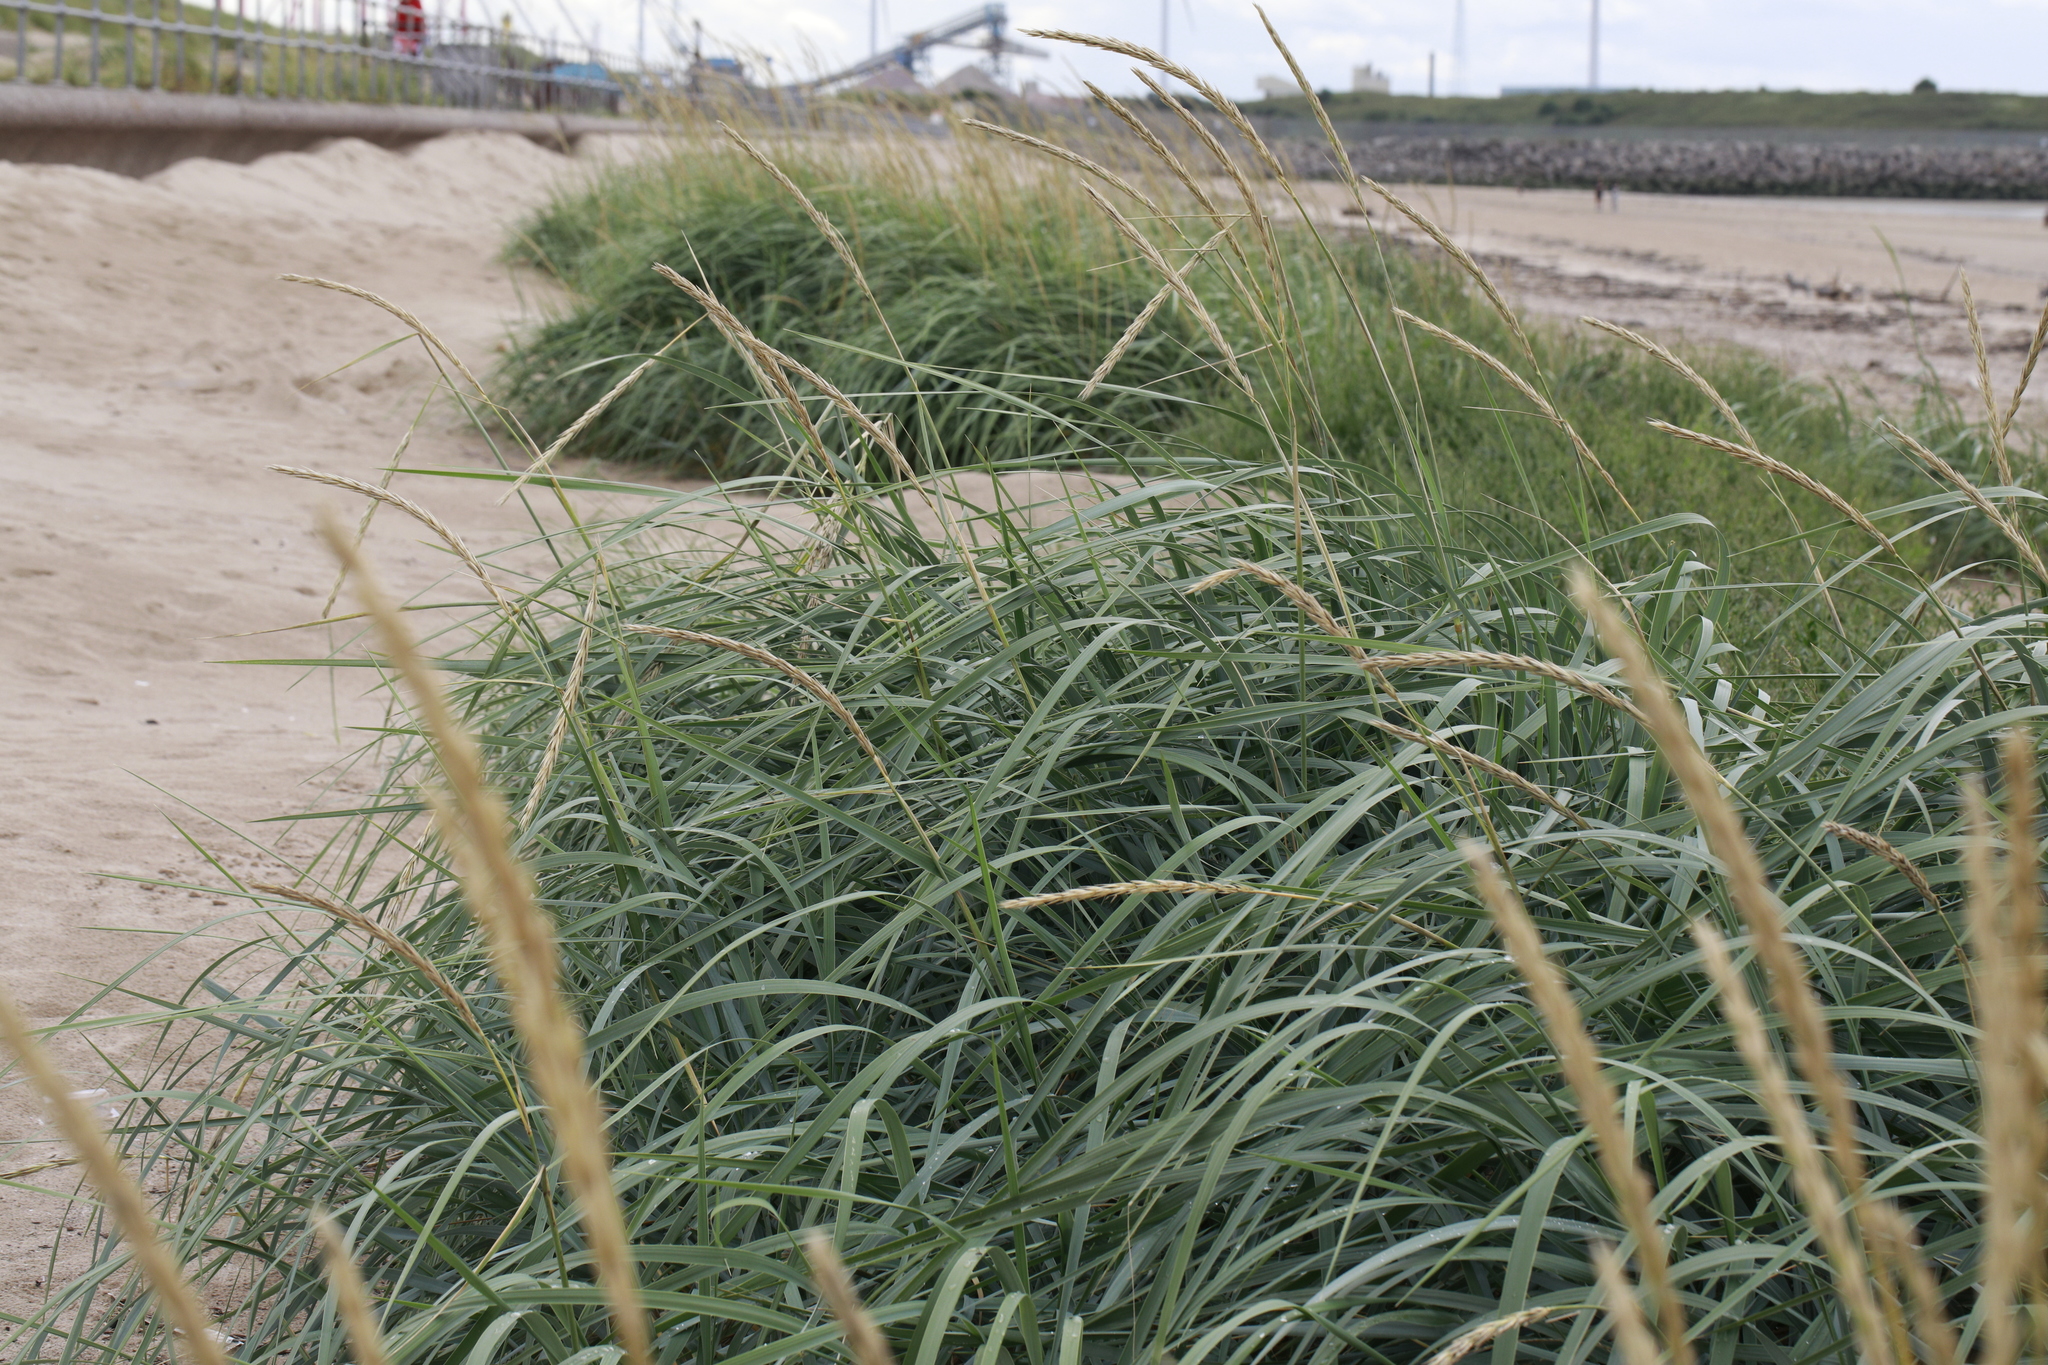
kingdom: Plantae
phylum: Tracheophyta
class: Liliopsida
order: Poales
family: Poaceae
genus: Leymus
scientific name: Leymus arenarius
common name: Lyme-grass
